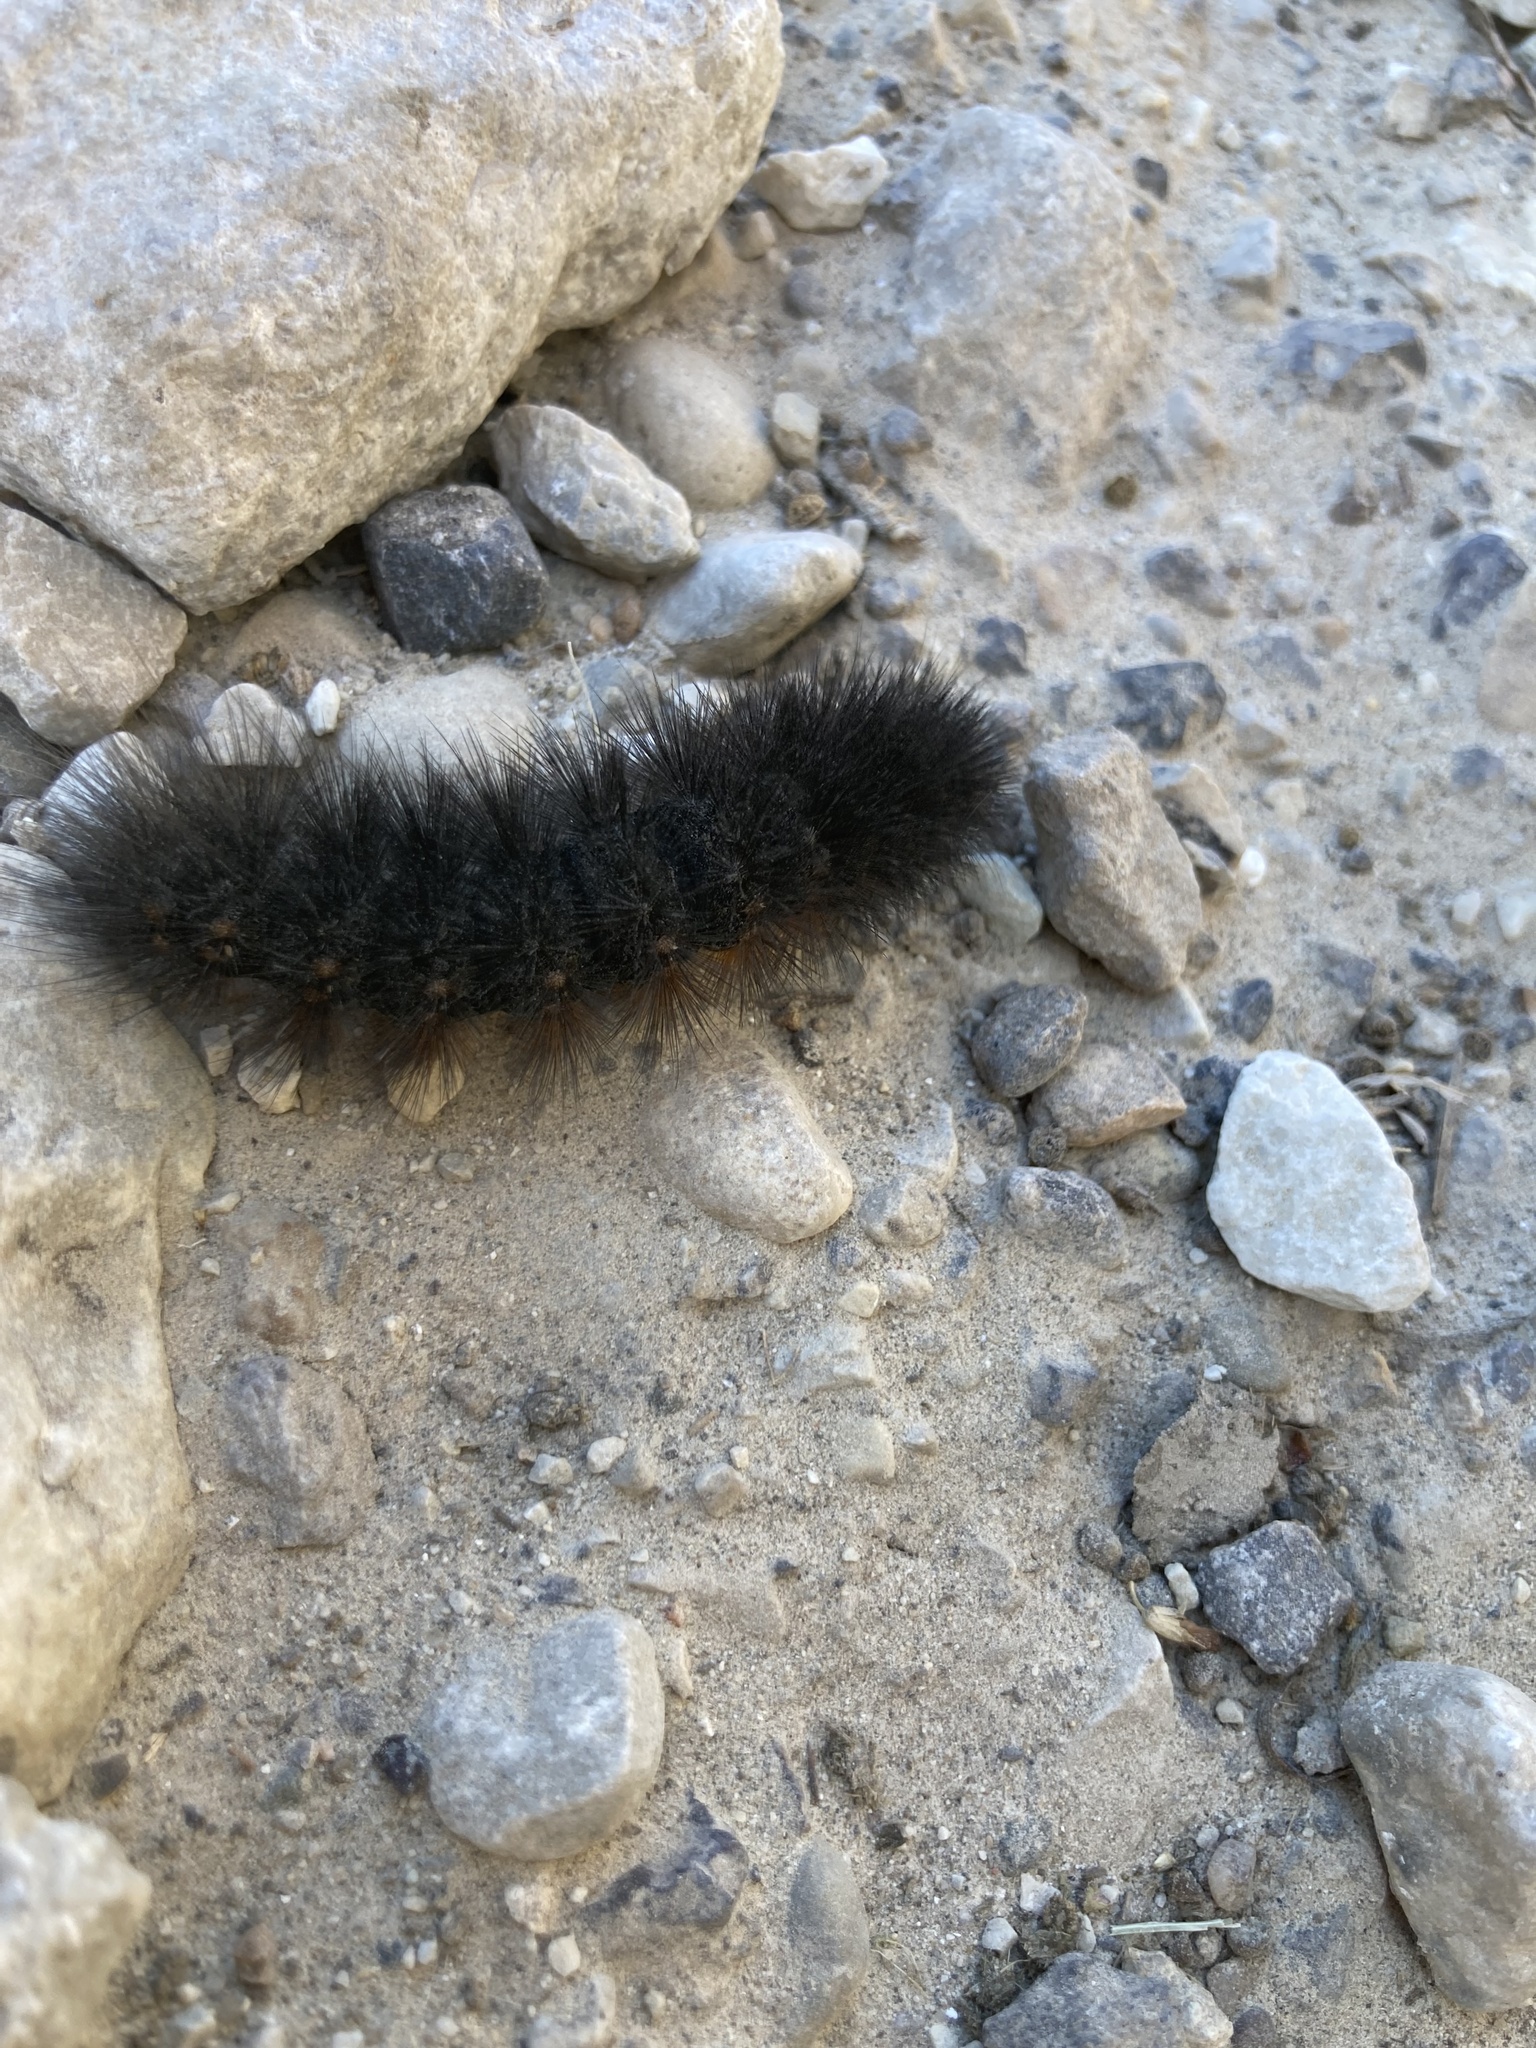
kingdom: Animalia
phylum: Arthropoda
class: Insecta
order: Lepidoptera
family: Erebidae
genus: Hypercompe
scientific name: Hypercompe scribonia
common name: Giant leopard moth
